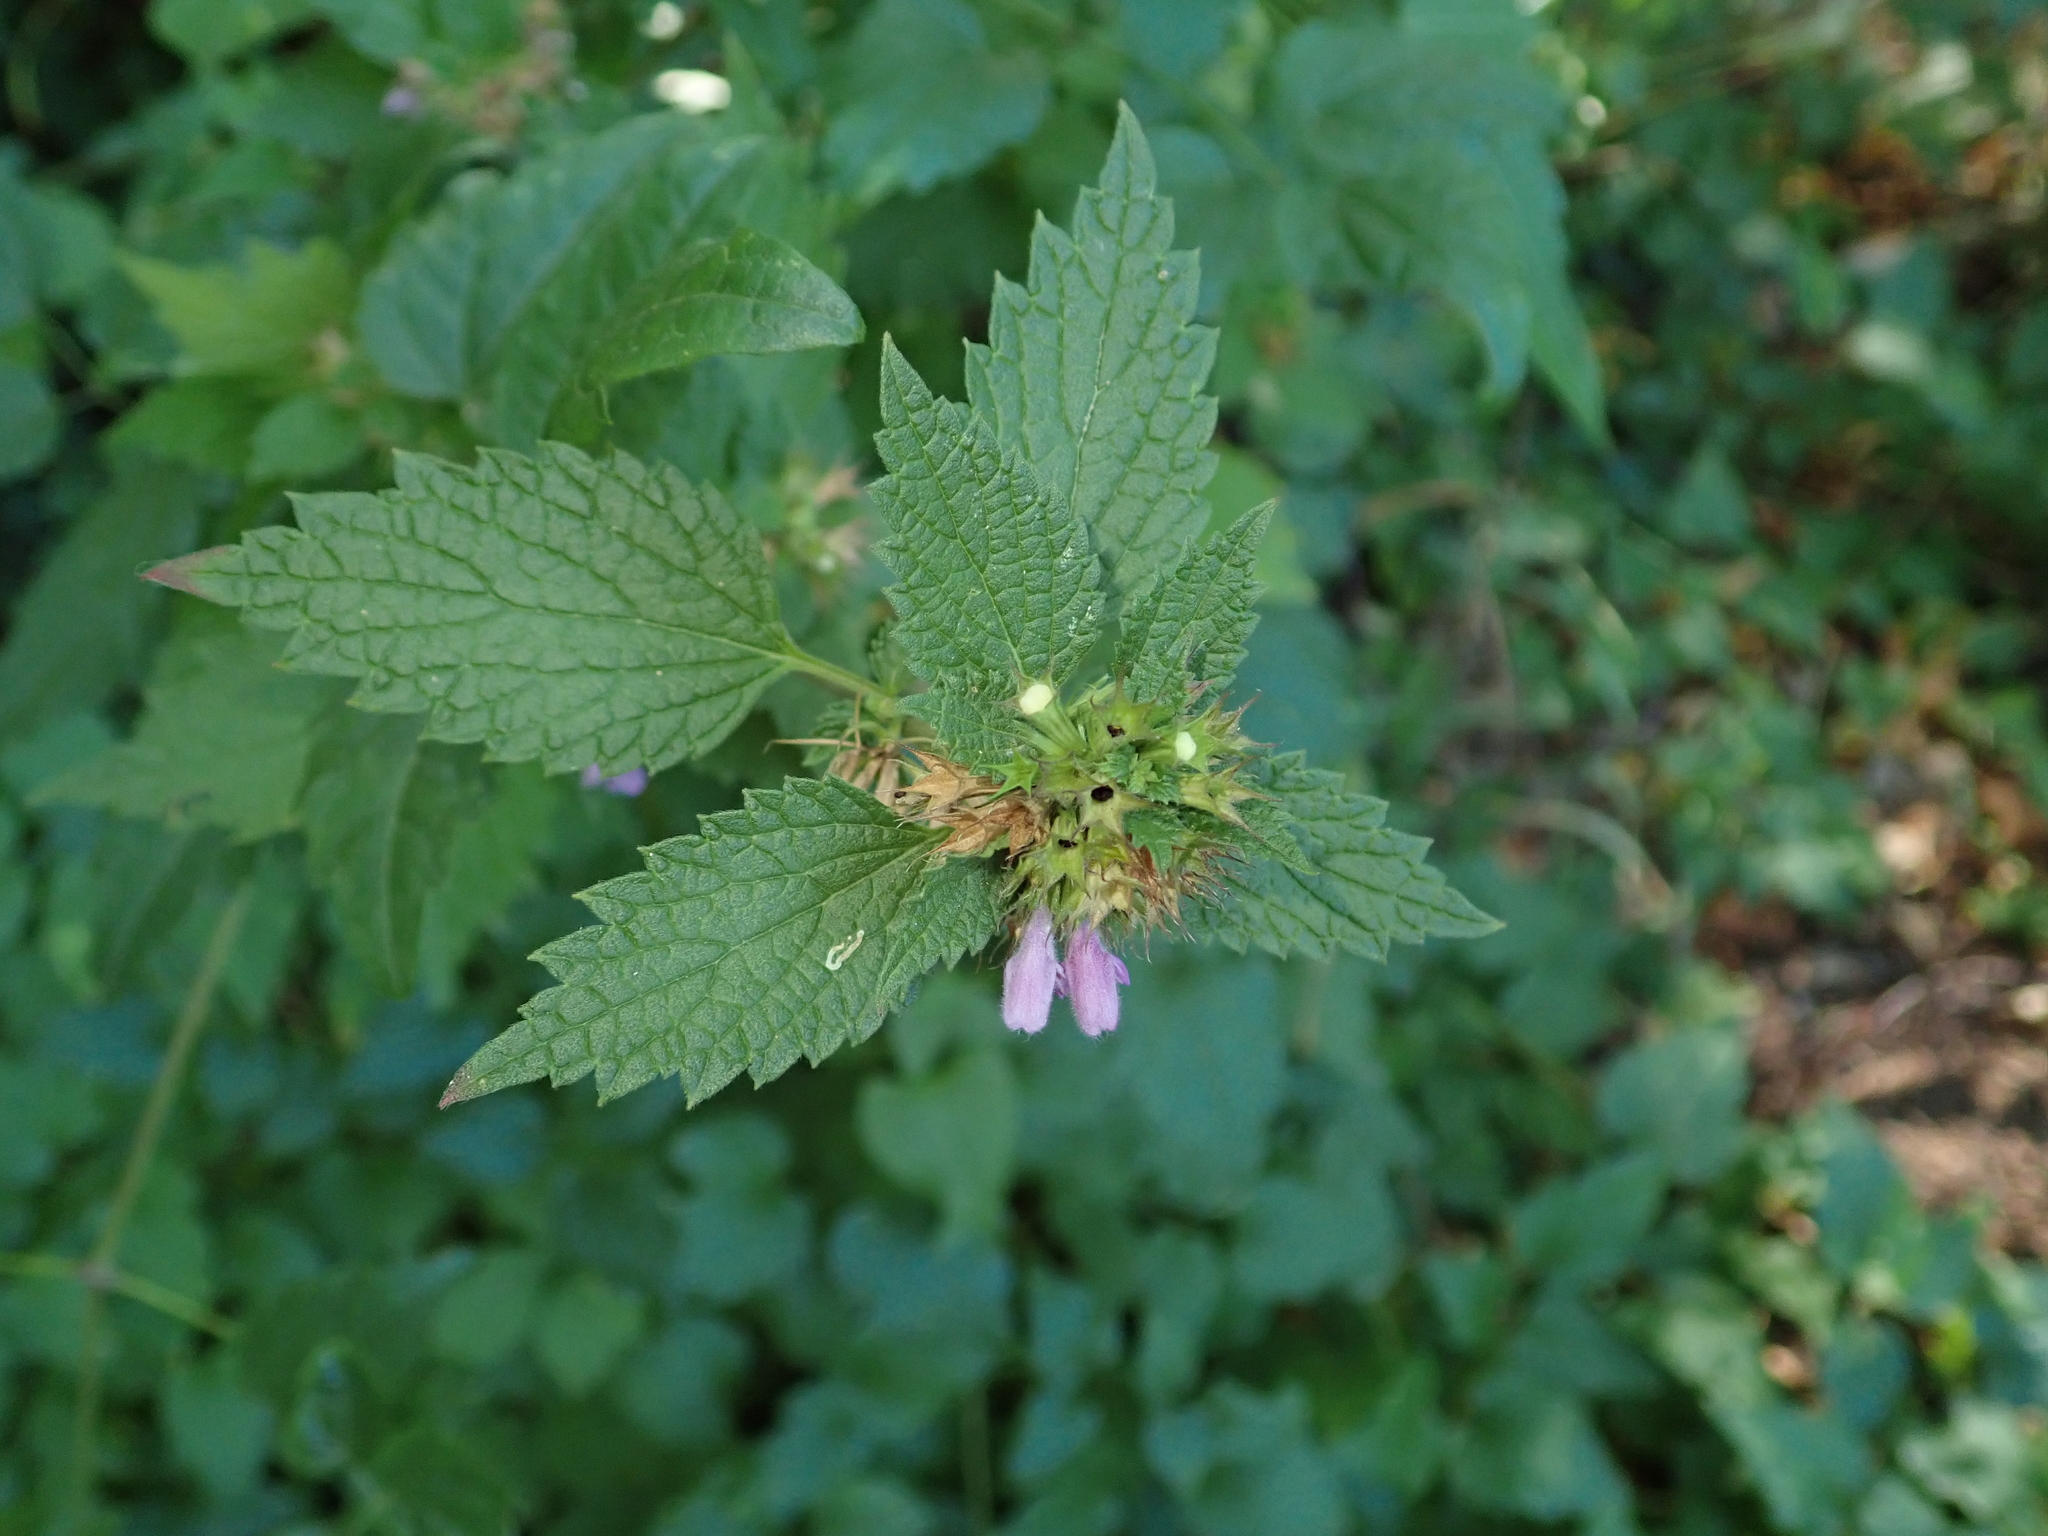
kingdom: Plantae
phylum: Tracheophyta
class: Magnoliopsida
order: Lamiales
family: Lamiaceae
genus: Ballota
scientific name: Ballota nigra
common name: Black horehound
